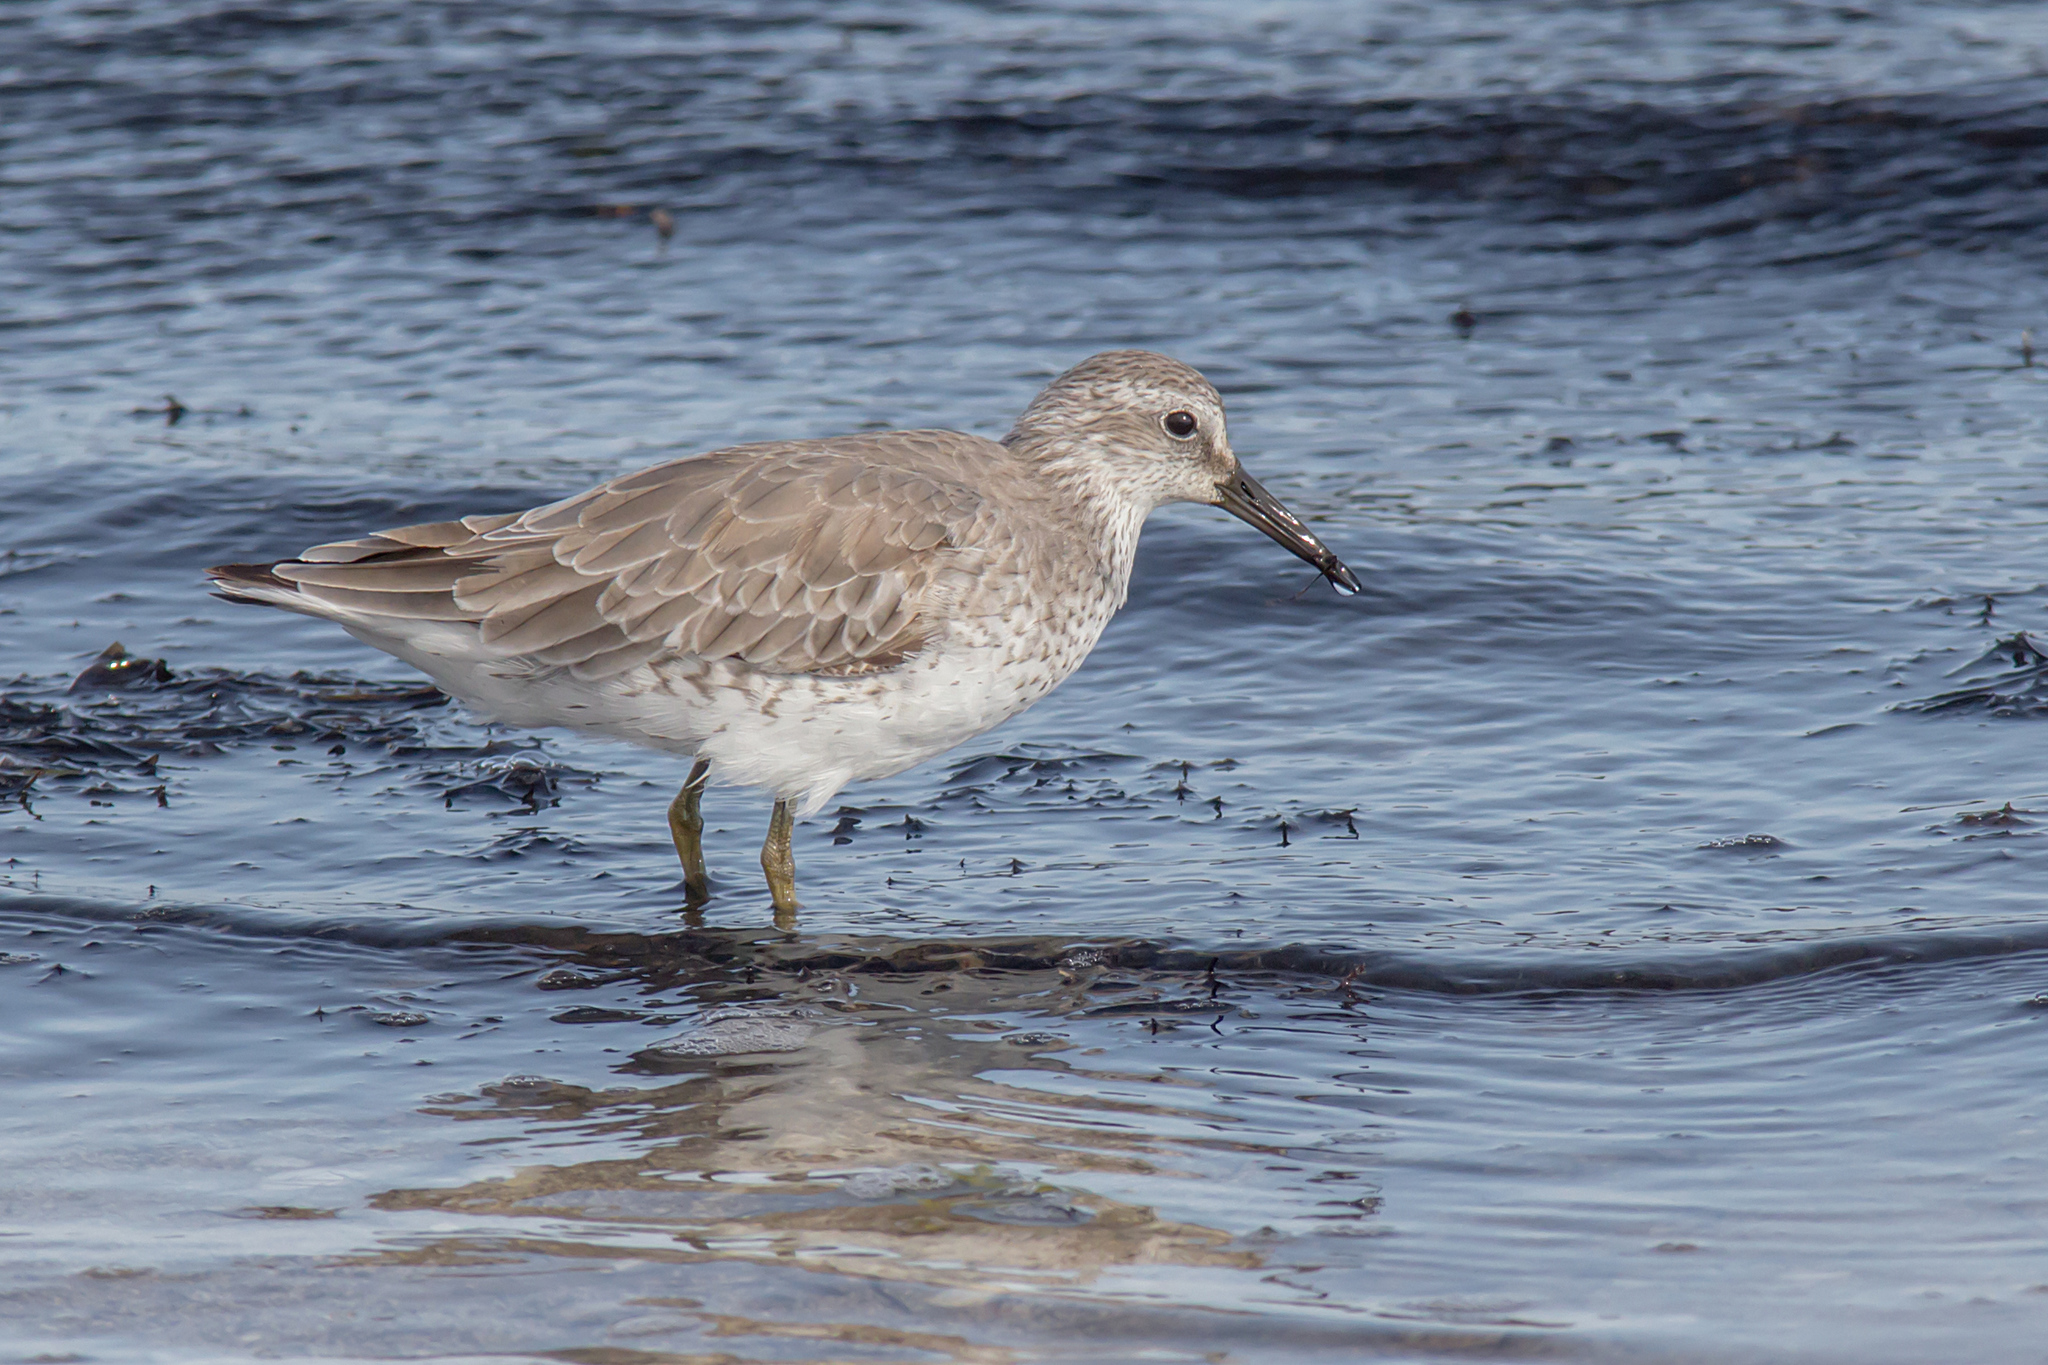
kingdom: Animalia
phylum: Chordata
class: Aves
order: Charadriiformes
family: Scolopacidae
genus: Calidris
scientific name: Calidris canutus
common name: Red knot
